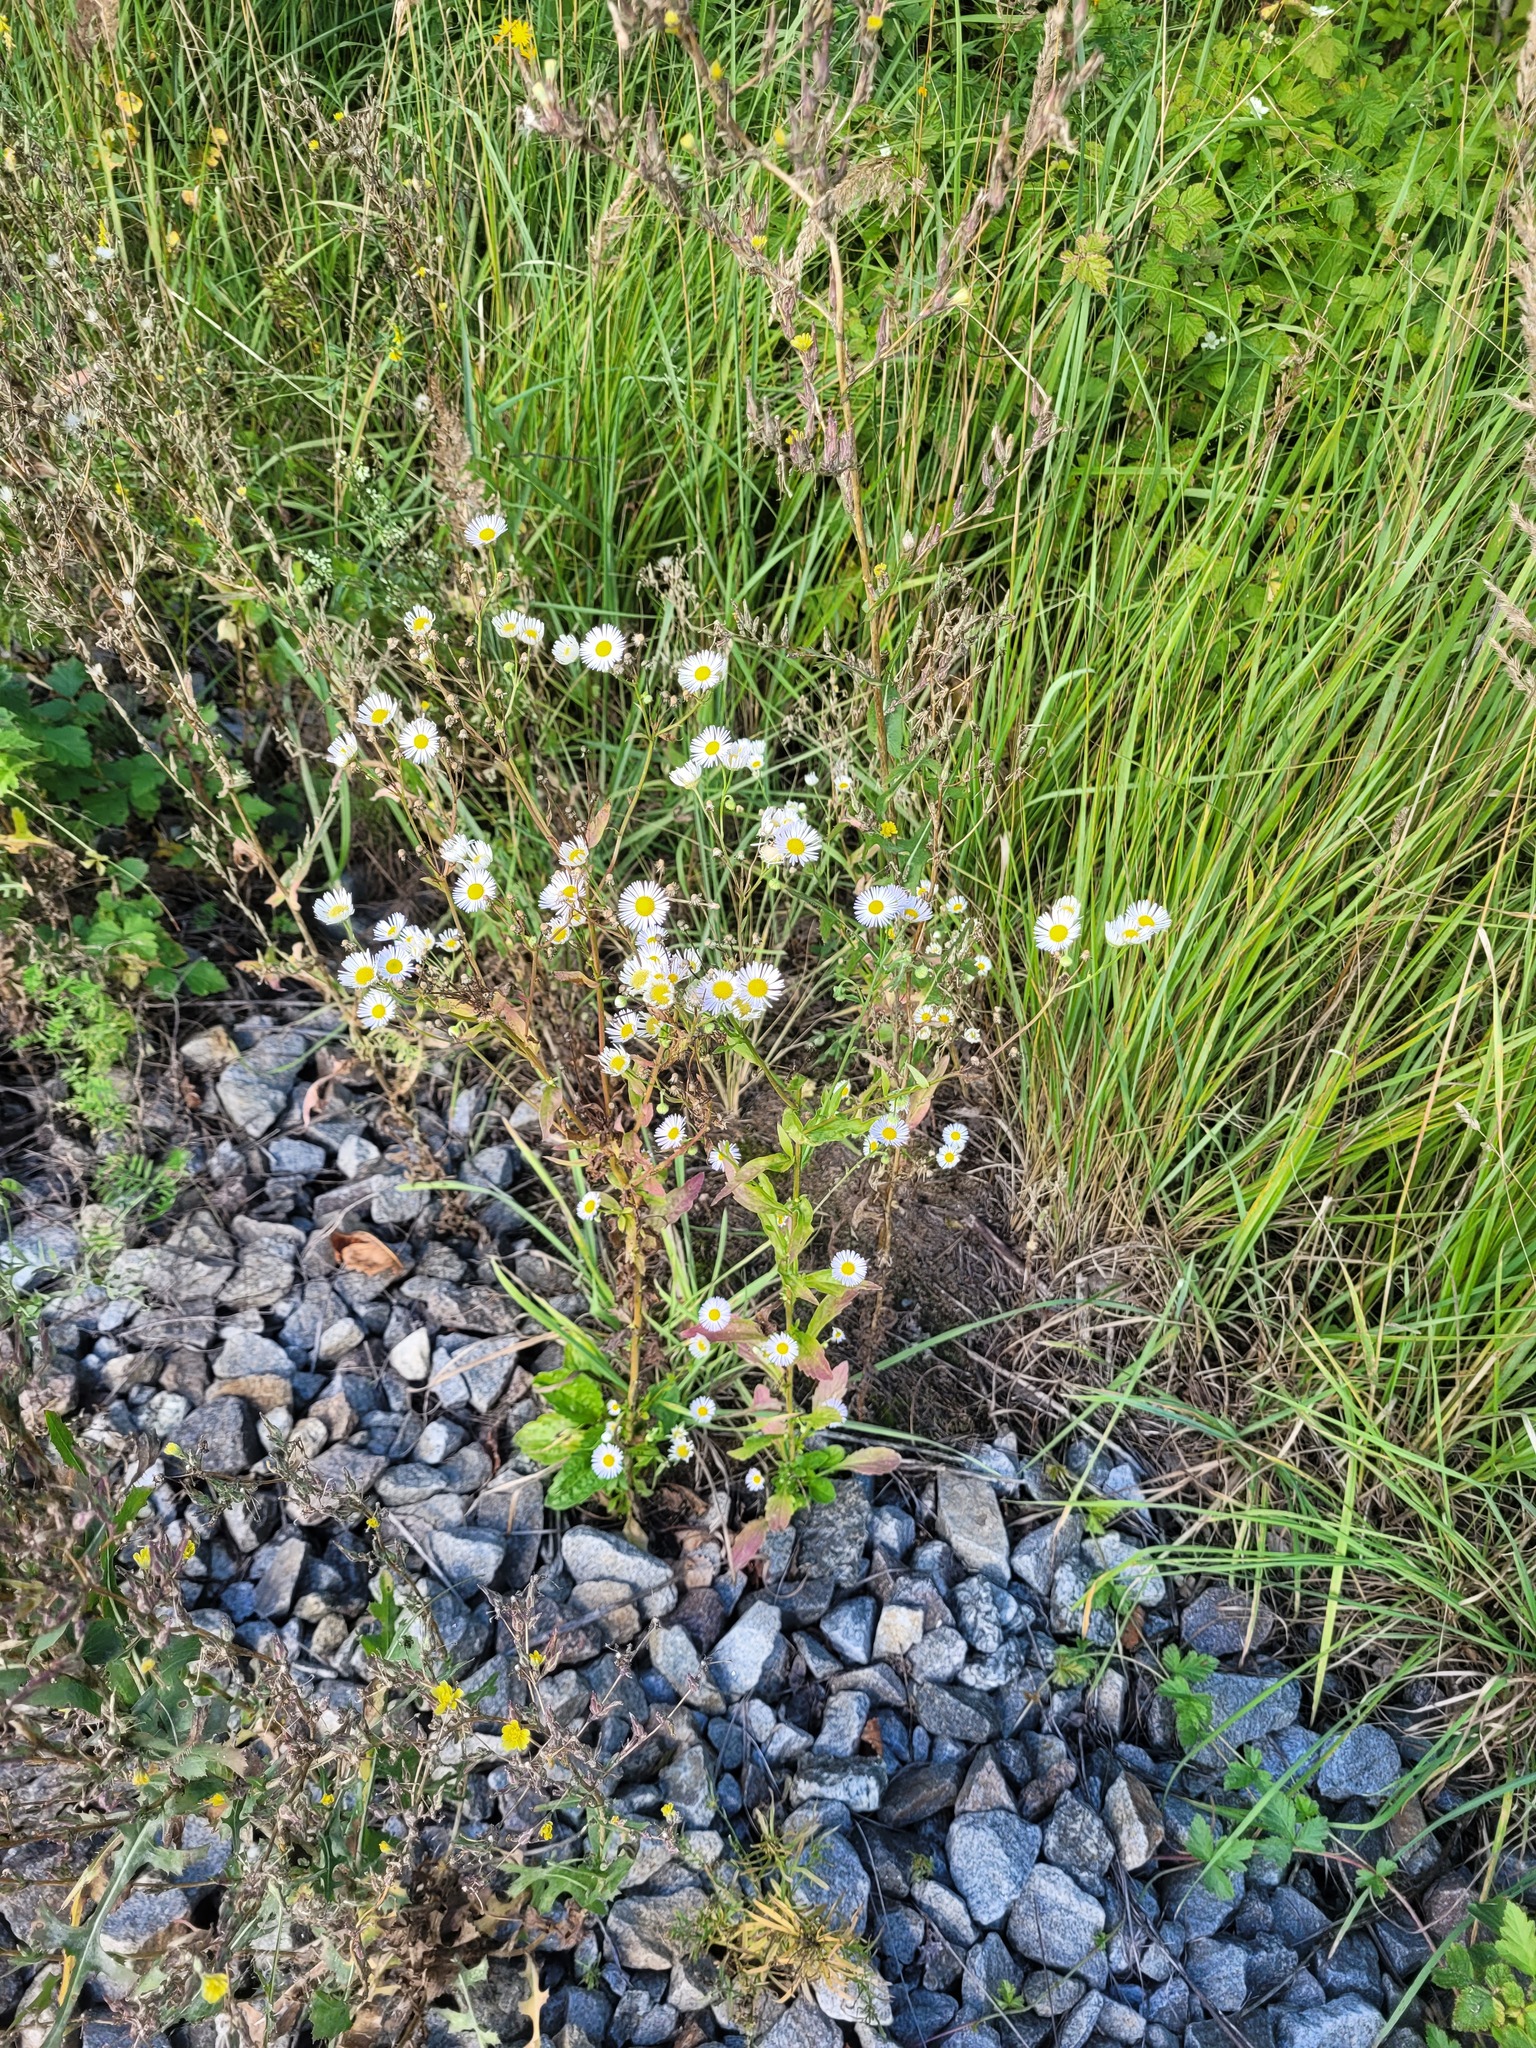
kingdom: Plantae
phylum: Tracheophyta
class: Magnoliopsida
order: Asterales
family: Asteraceae
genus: Erigeron
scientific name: Erigeron annuus
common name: Tall fleabane
